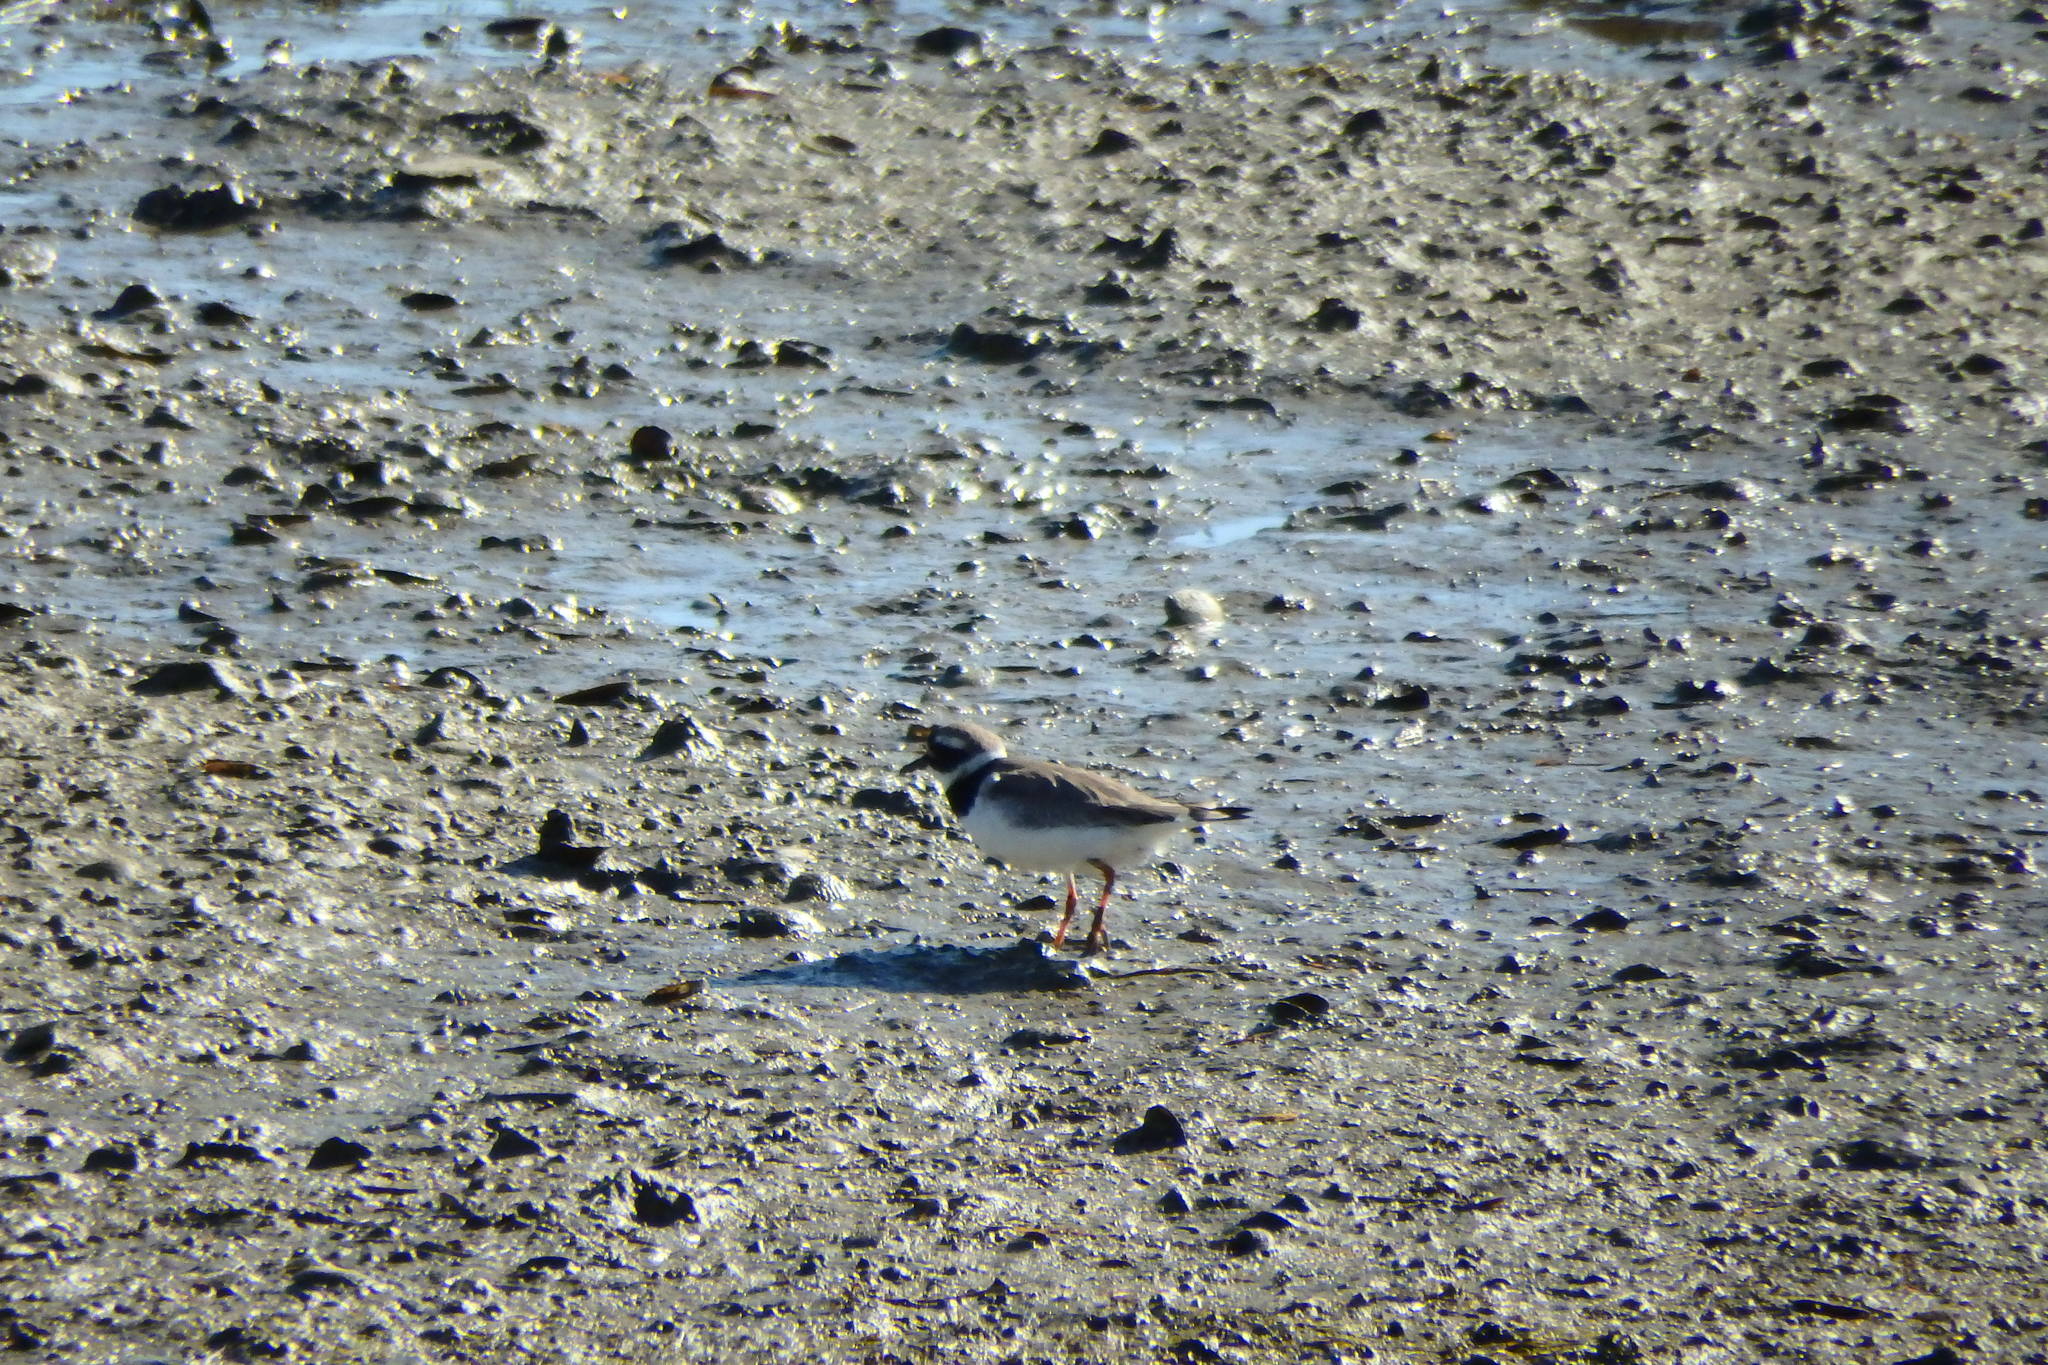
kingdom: Animalia
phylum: Chordata
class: Aves
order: Charadriiformes
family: Charadriidae
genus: Charadrius
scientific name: Charadrius hiaticula
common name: Common ringed plover
